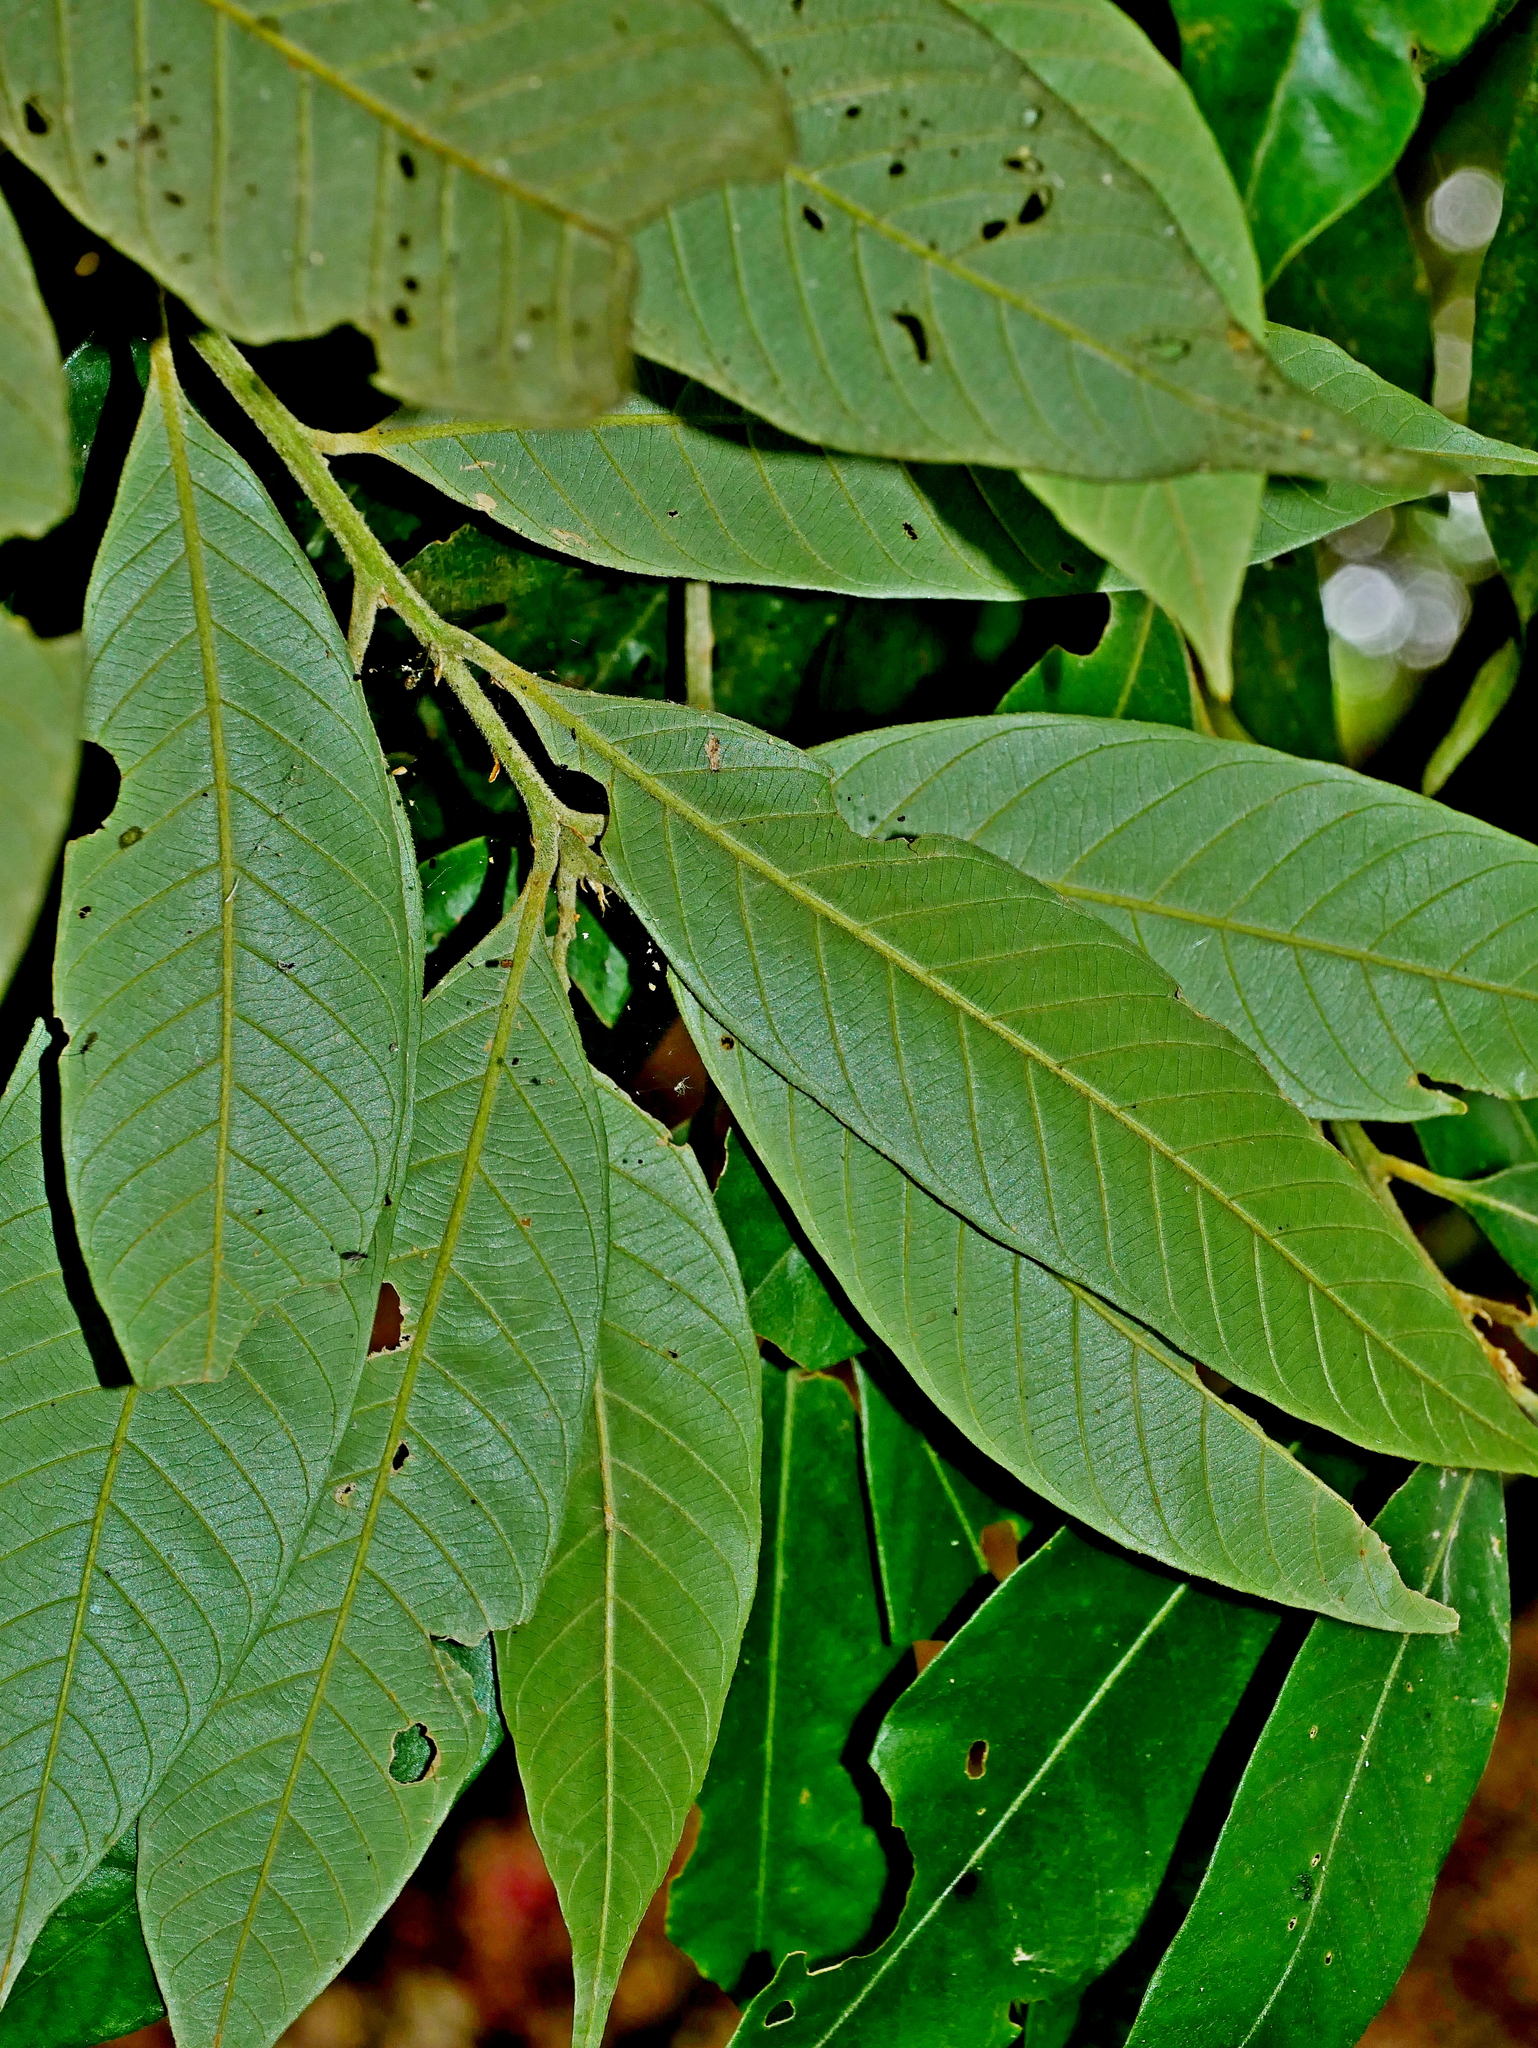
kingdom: Plantae
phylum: Tracheophyta
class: Magnoliopsida
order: Fagales
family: Fagaceae
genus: Lithocarpus
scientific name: Lithocarpus amygdalifolius
